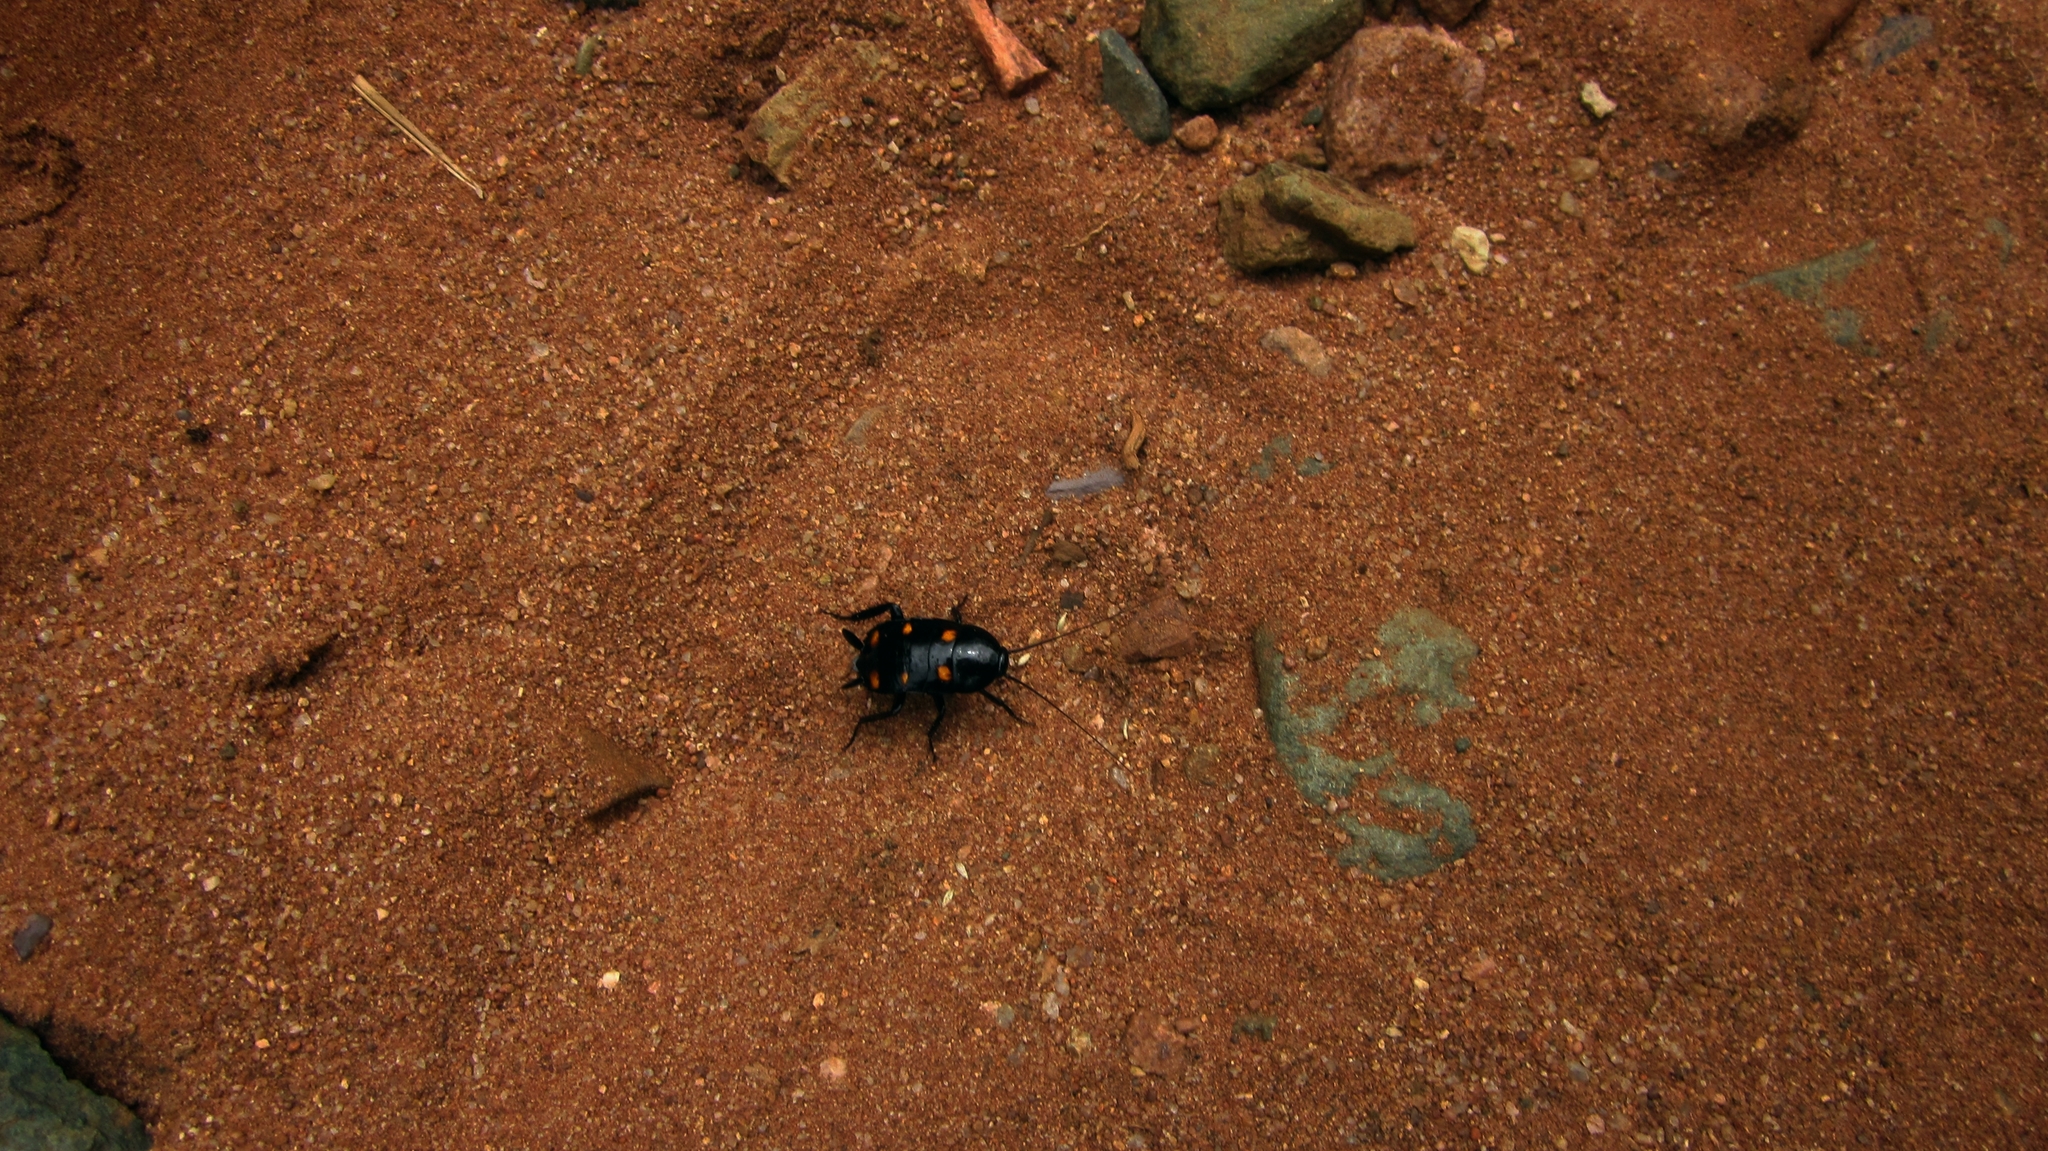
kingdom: Animalia
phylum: Arthropoda
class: Insecta
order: Blattodea
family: Blattidae
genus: Neostylopyga
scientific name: Neostylopyga sexpustulata
